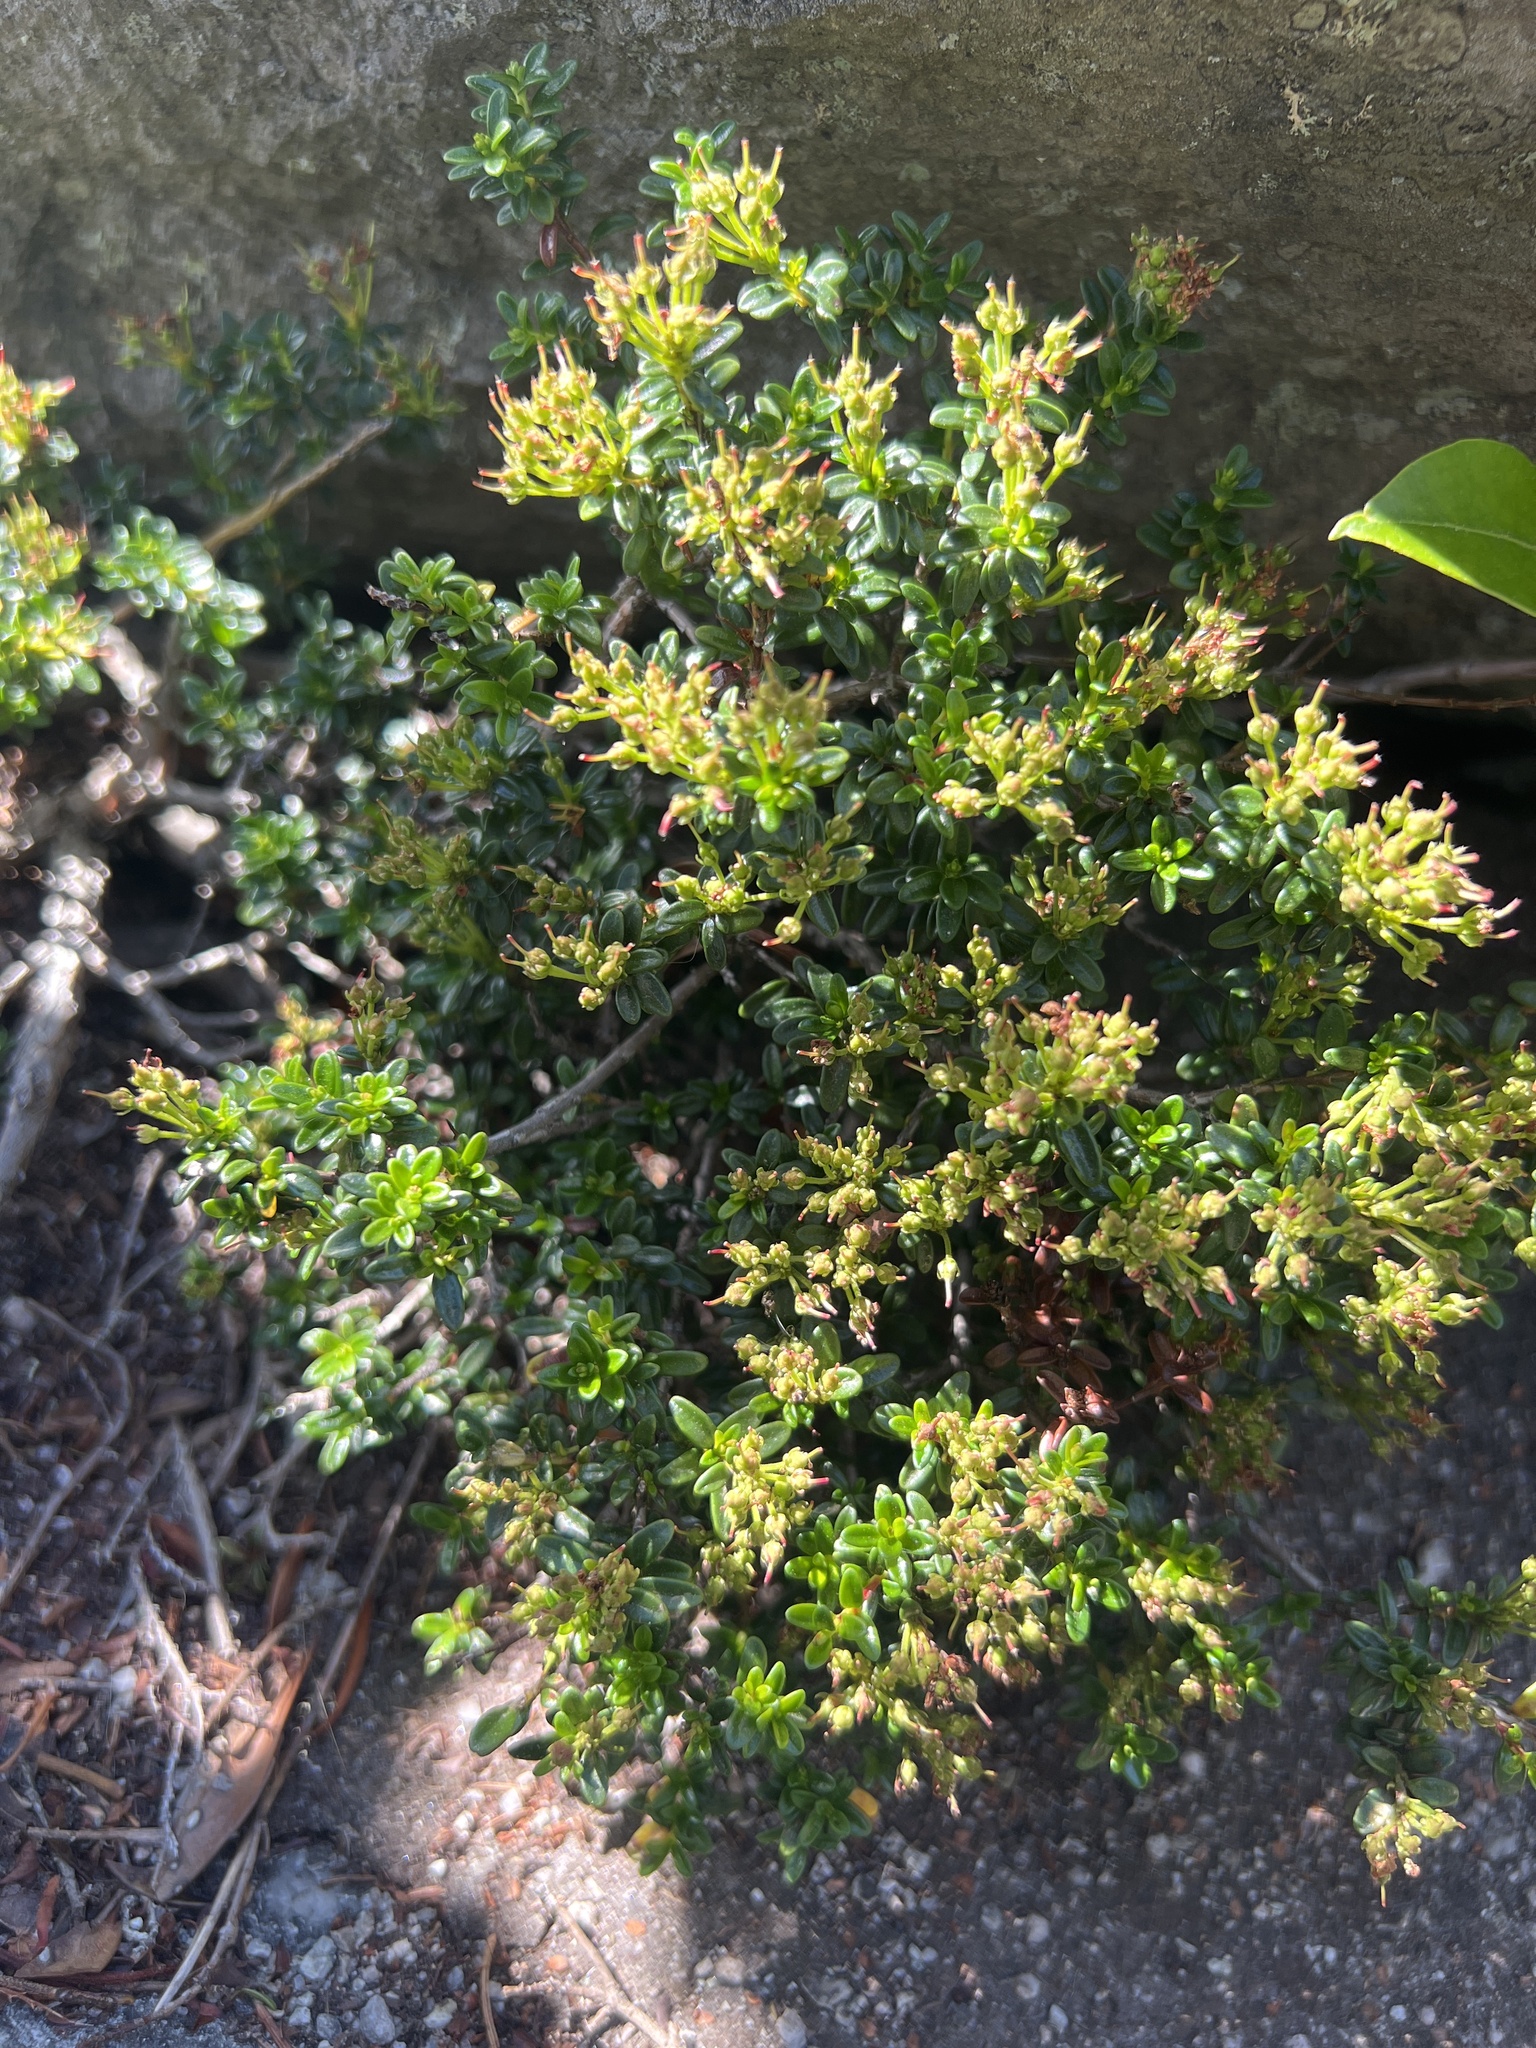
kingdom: Plantae
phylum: Tracheophyta
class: Magnoliopsida
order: Ericales
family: Ericaceae
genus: Kalmia
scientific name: Kalmia buxifolia
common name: Sandmyrtle
